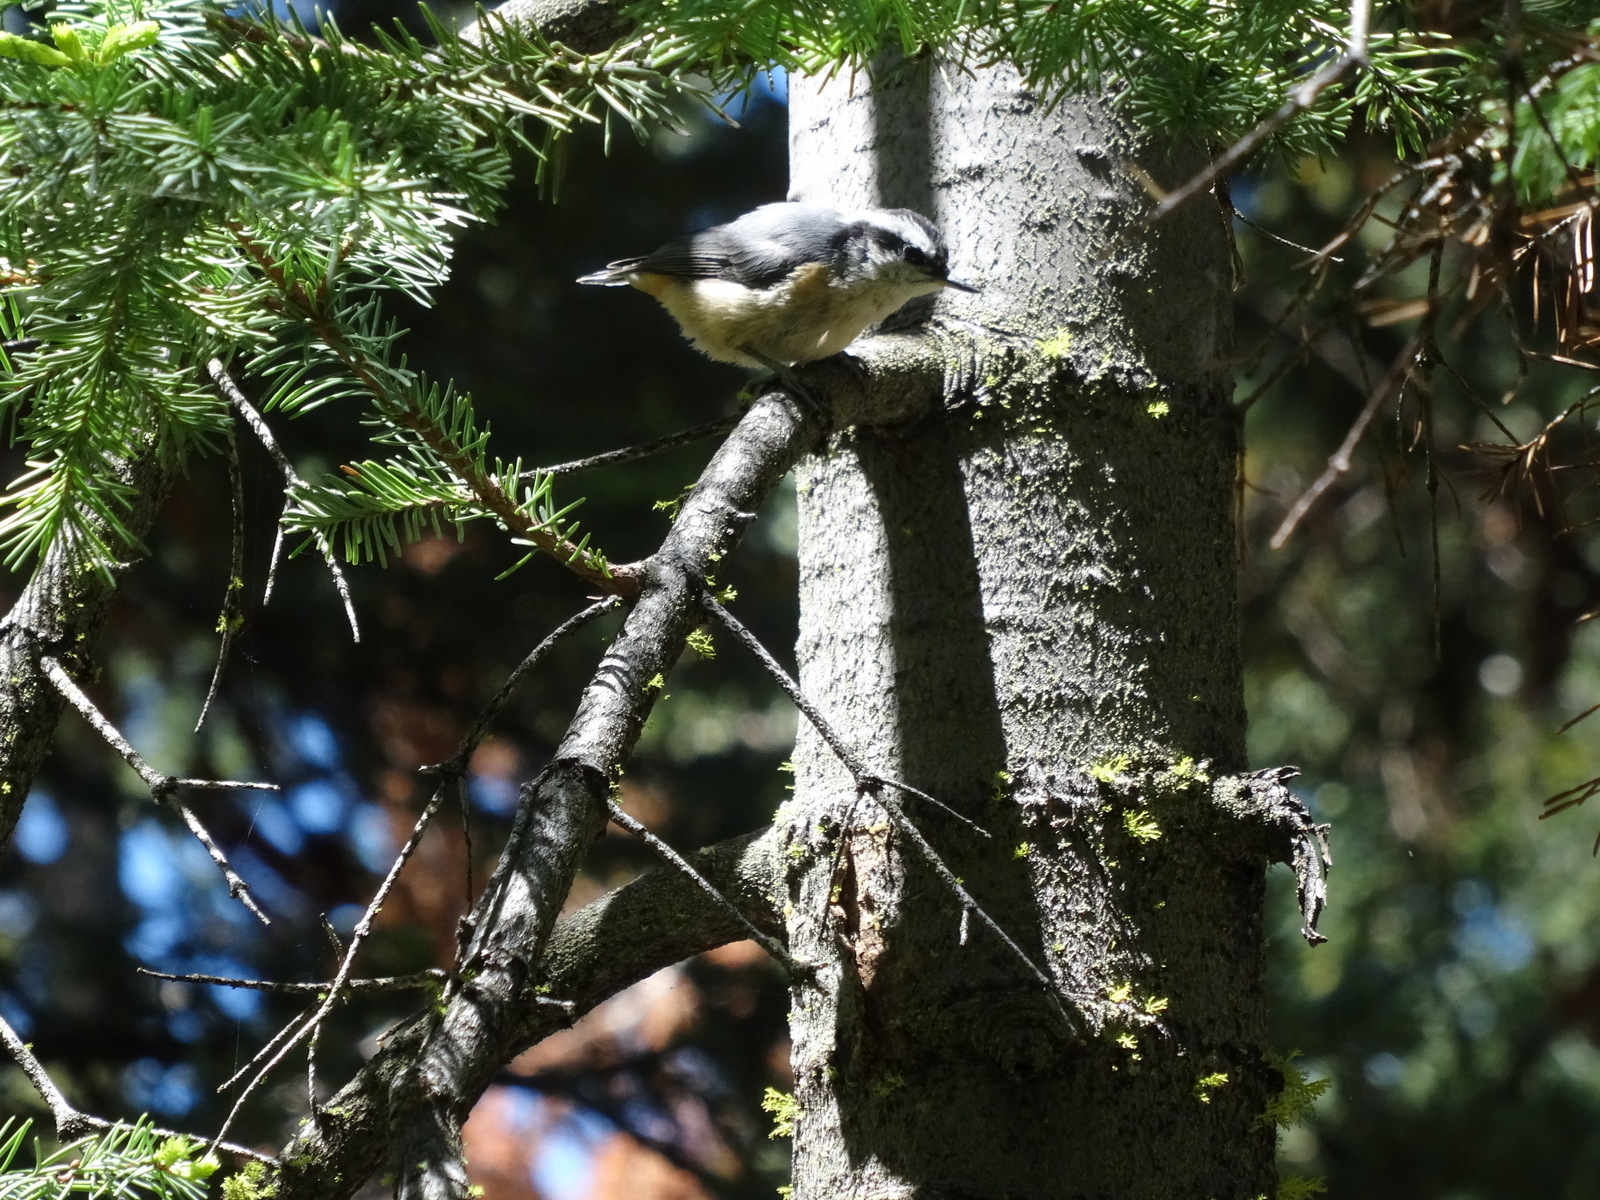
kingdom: Animalia
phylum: Chordata
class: Aves
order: Passeriformes
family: Sittidae
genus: Sitta
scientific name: Sitta canadensis
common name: Red-breasted nuthatch
